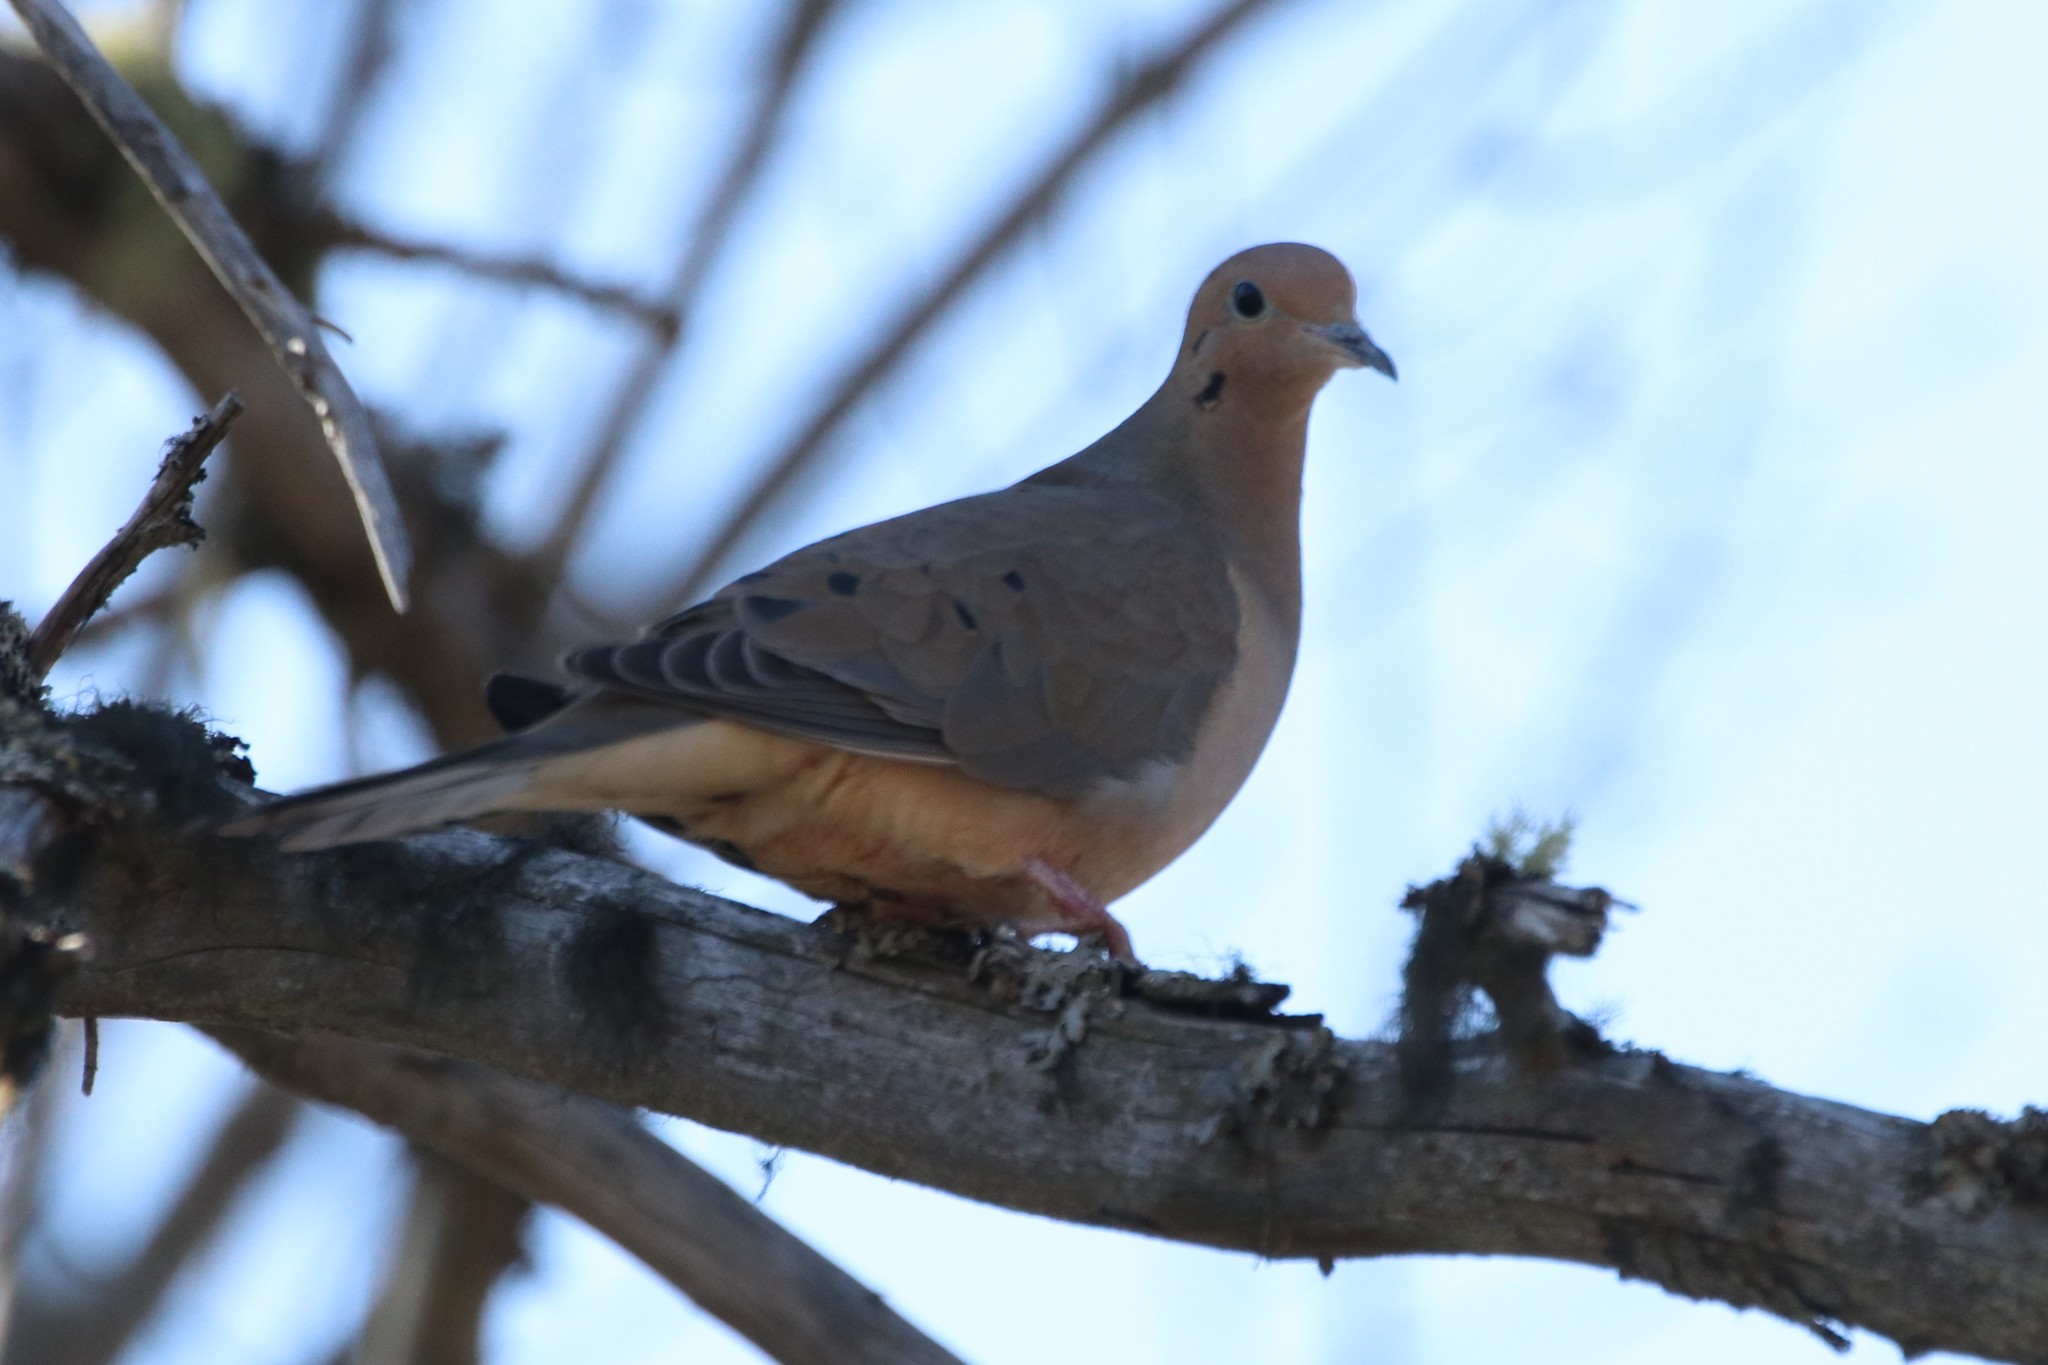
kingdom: Animalia
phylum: Chordata
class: Aves
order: Columbiformes
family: Columbidae
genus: Zenaida
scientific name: Zenaida macroura
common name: Mourning dove
